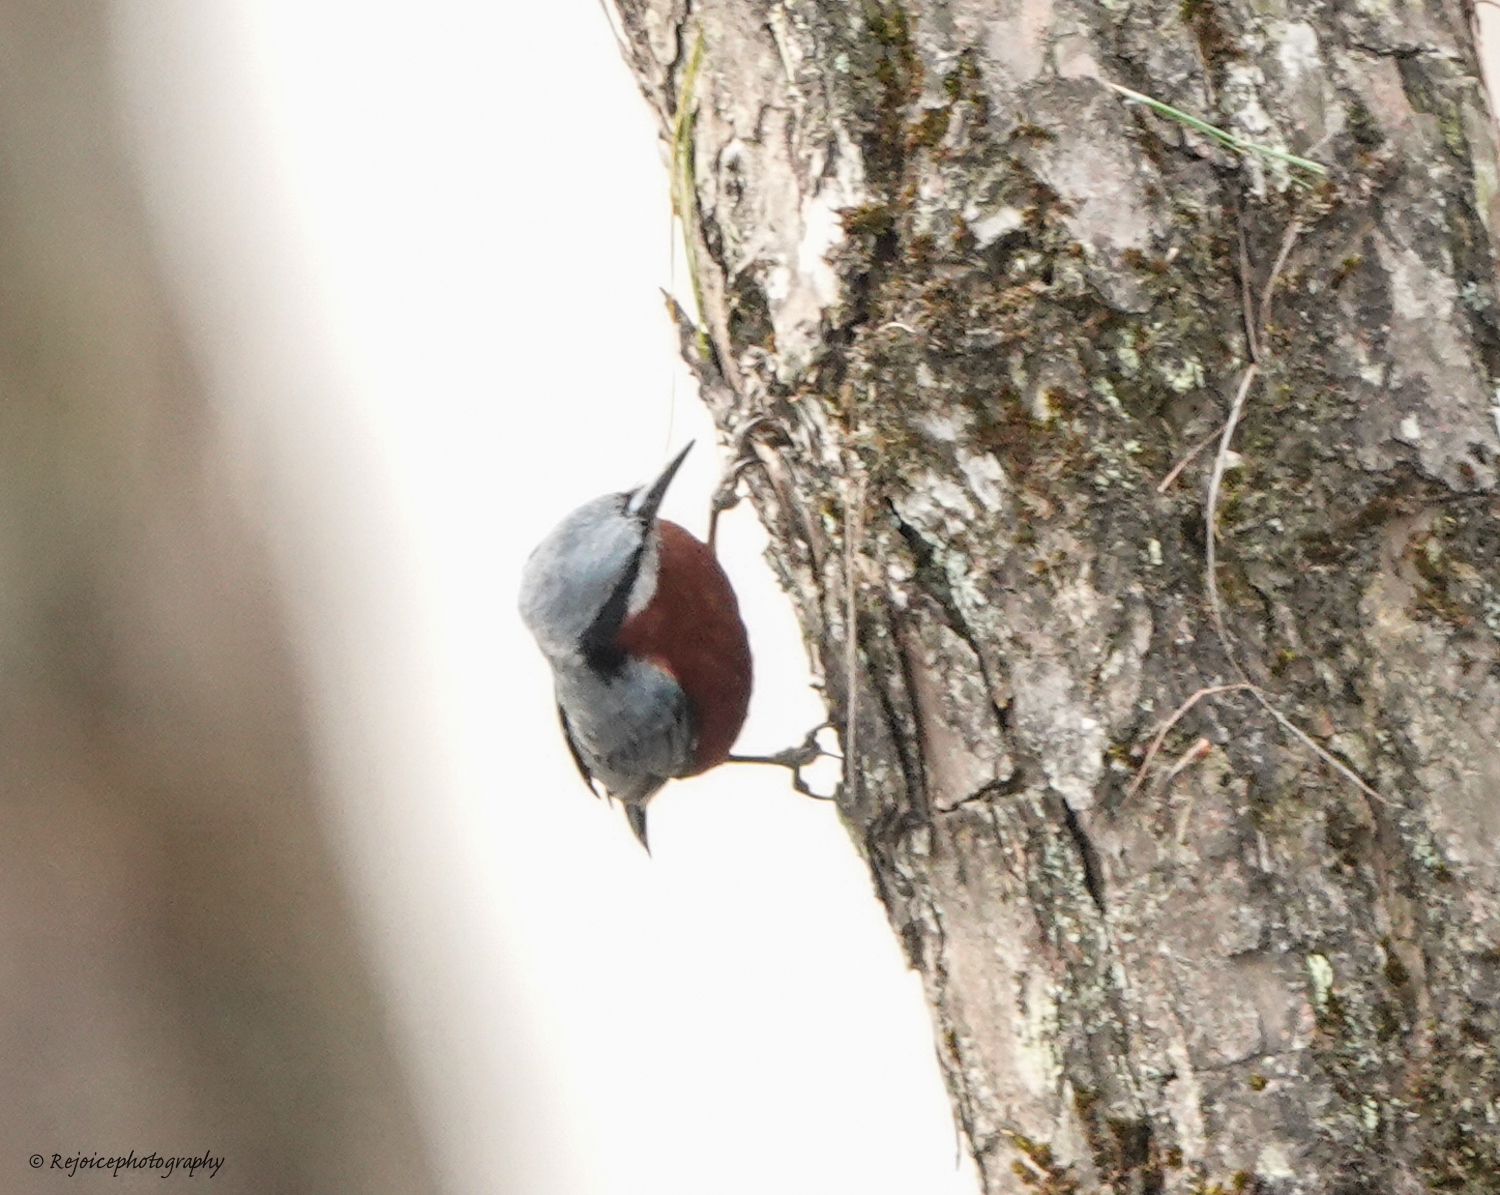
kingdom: Animalia
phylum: Chordata
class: Aves
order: Passeriformes
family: Sittidae
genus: Sitta
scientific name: Sitta cinnamoventris
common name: Chestnut-bellied nuthatch
